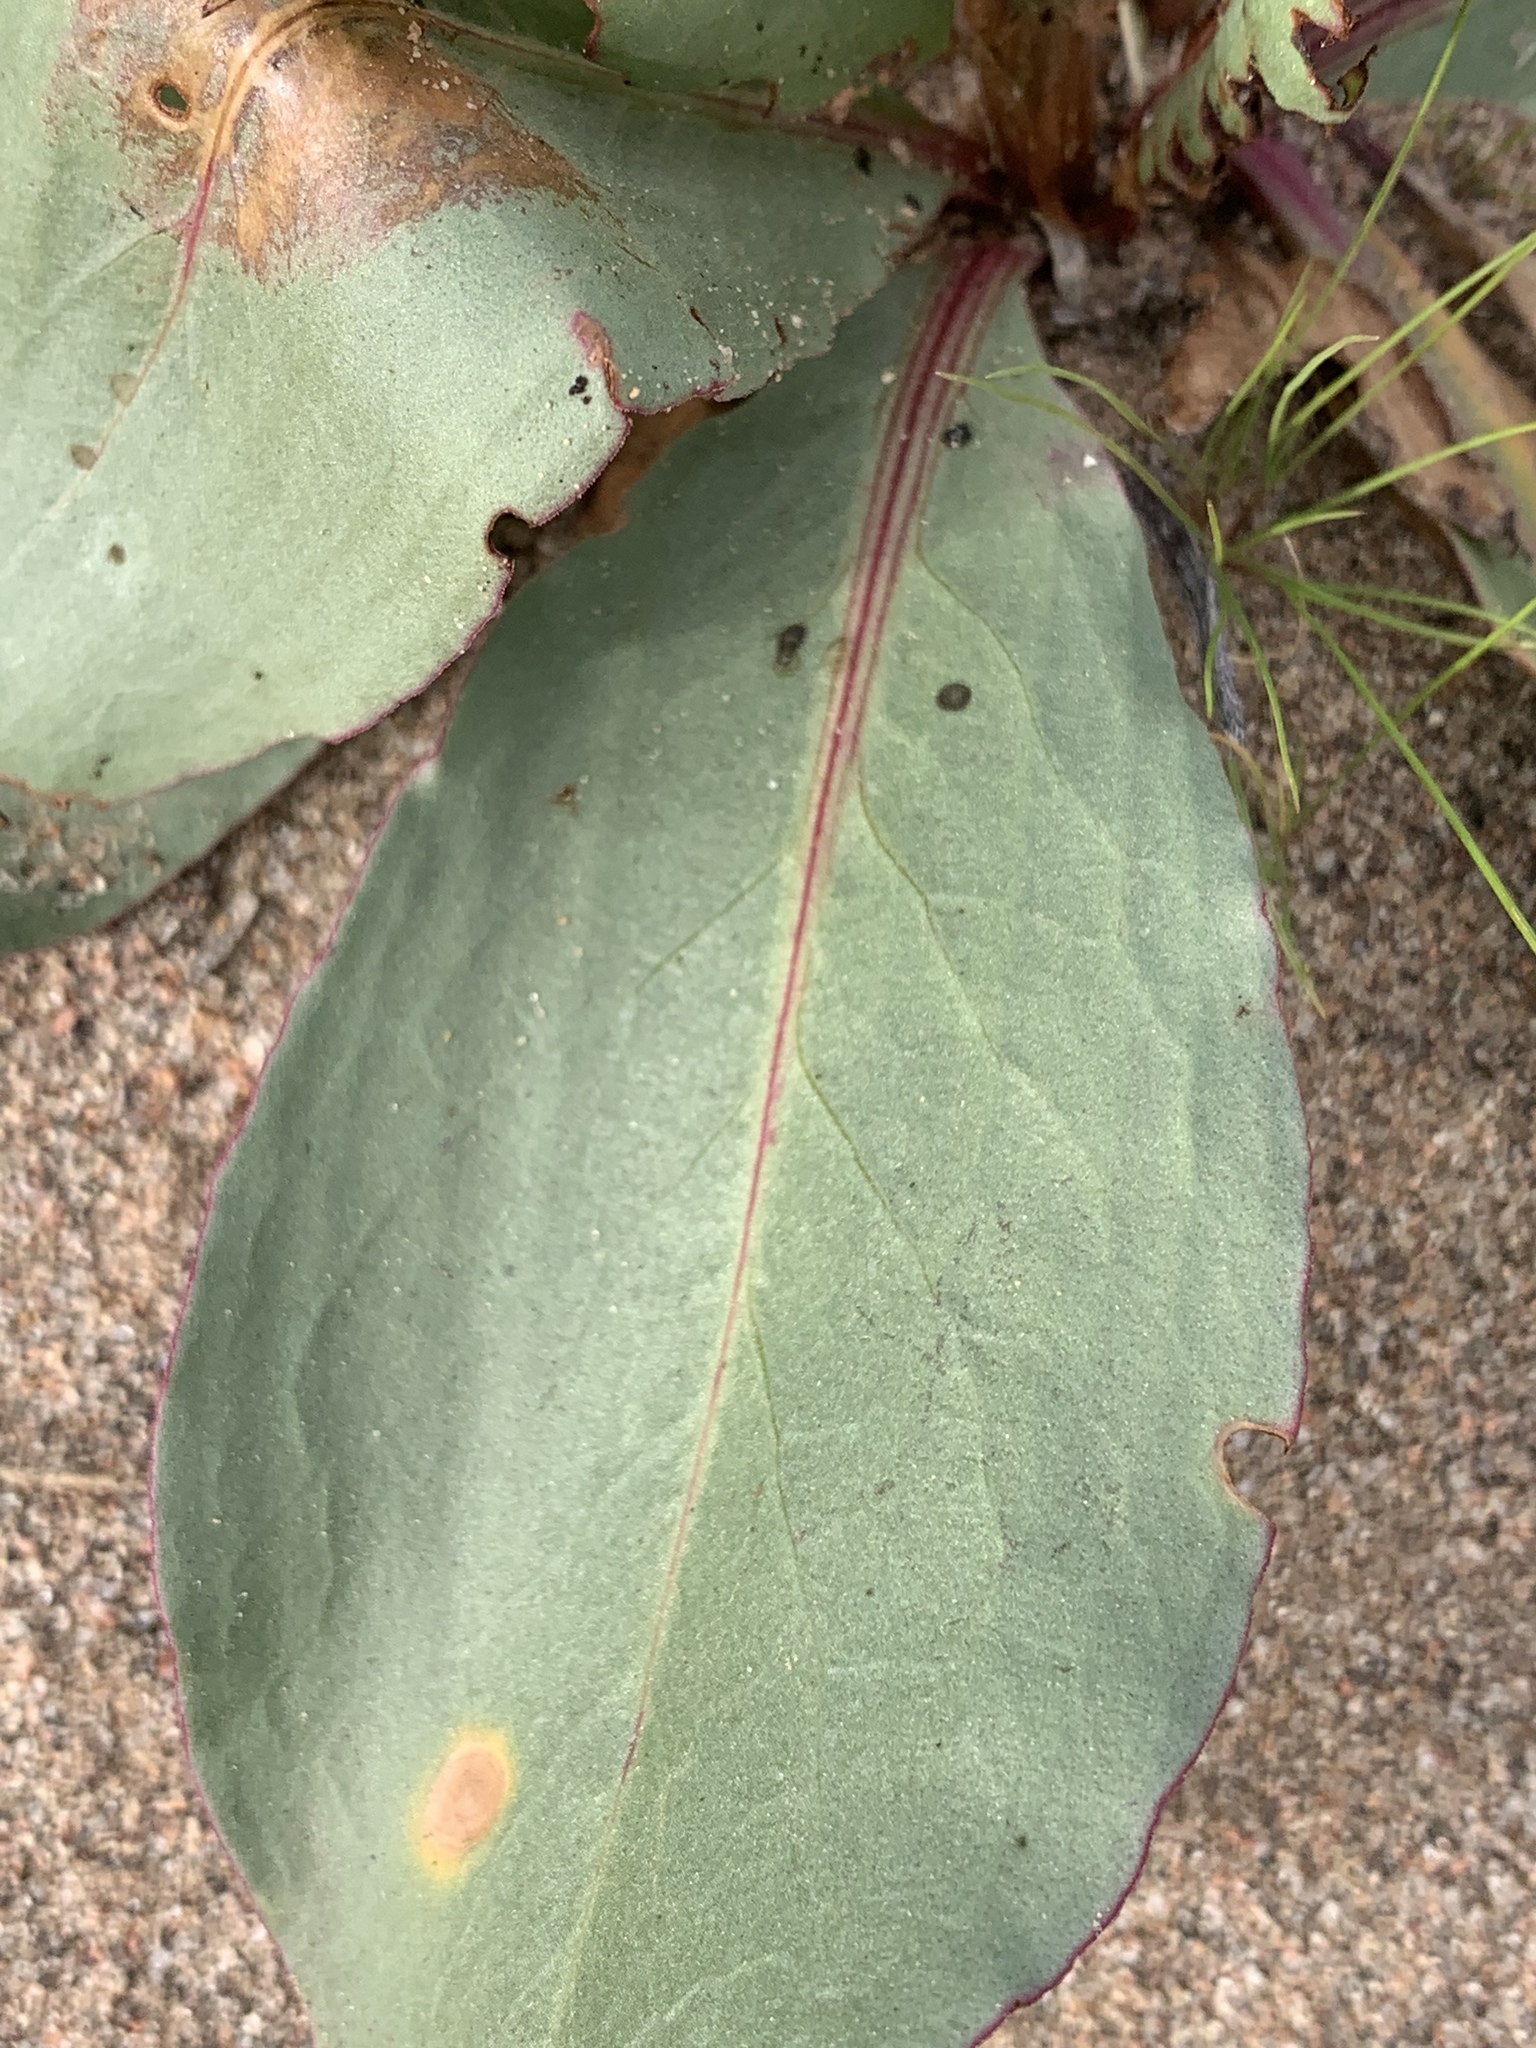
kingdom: Plantae
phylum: Tracheophyta
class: Magnoliopsida
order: Caryophyllales
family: Polygonaceae
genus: Rumex
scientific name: Rumex hymenosepalus
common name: Ganagra
